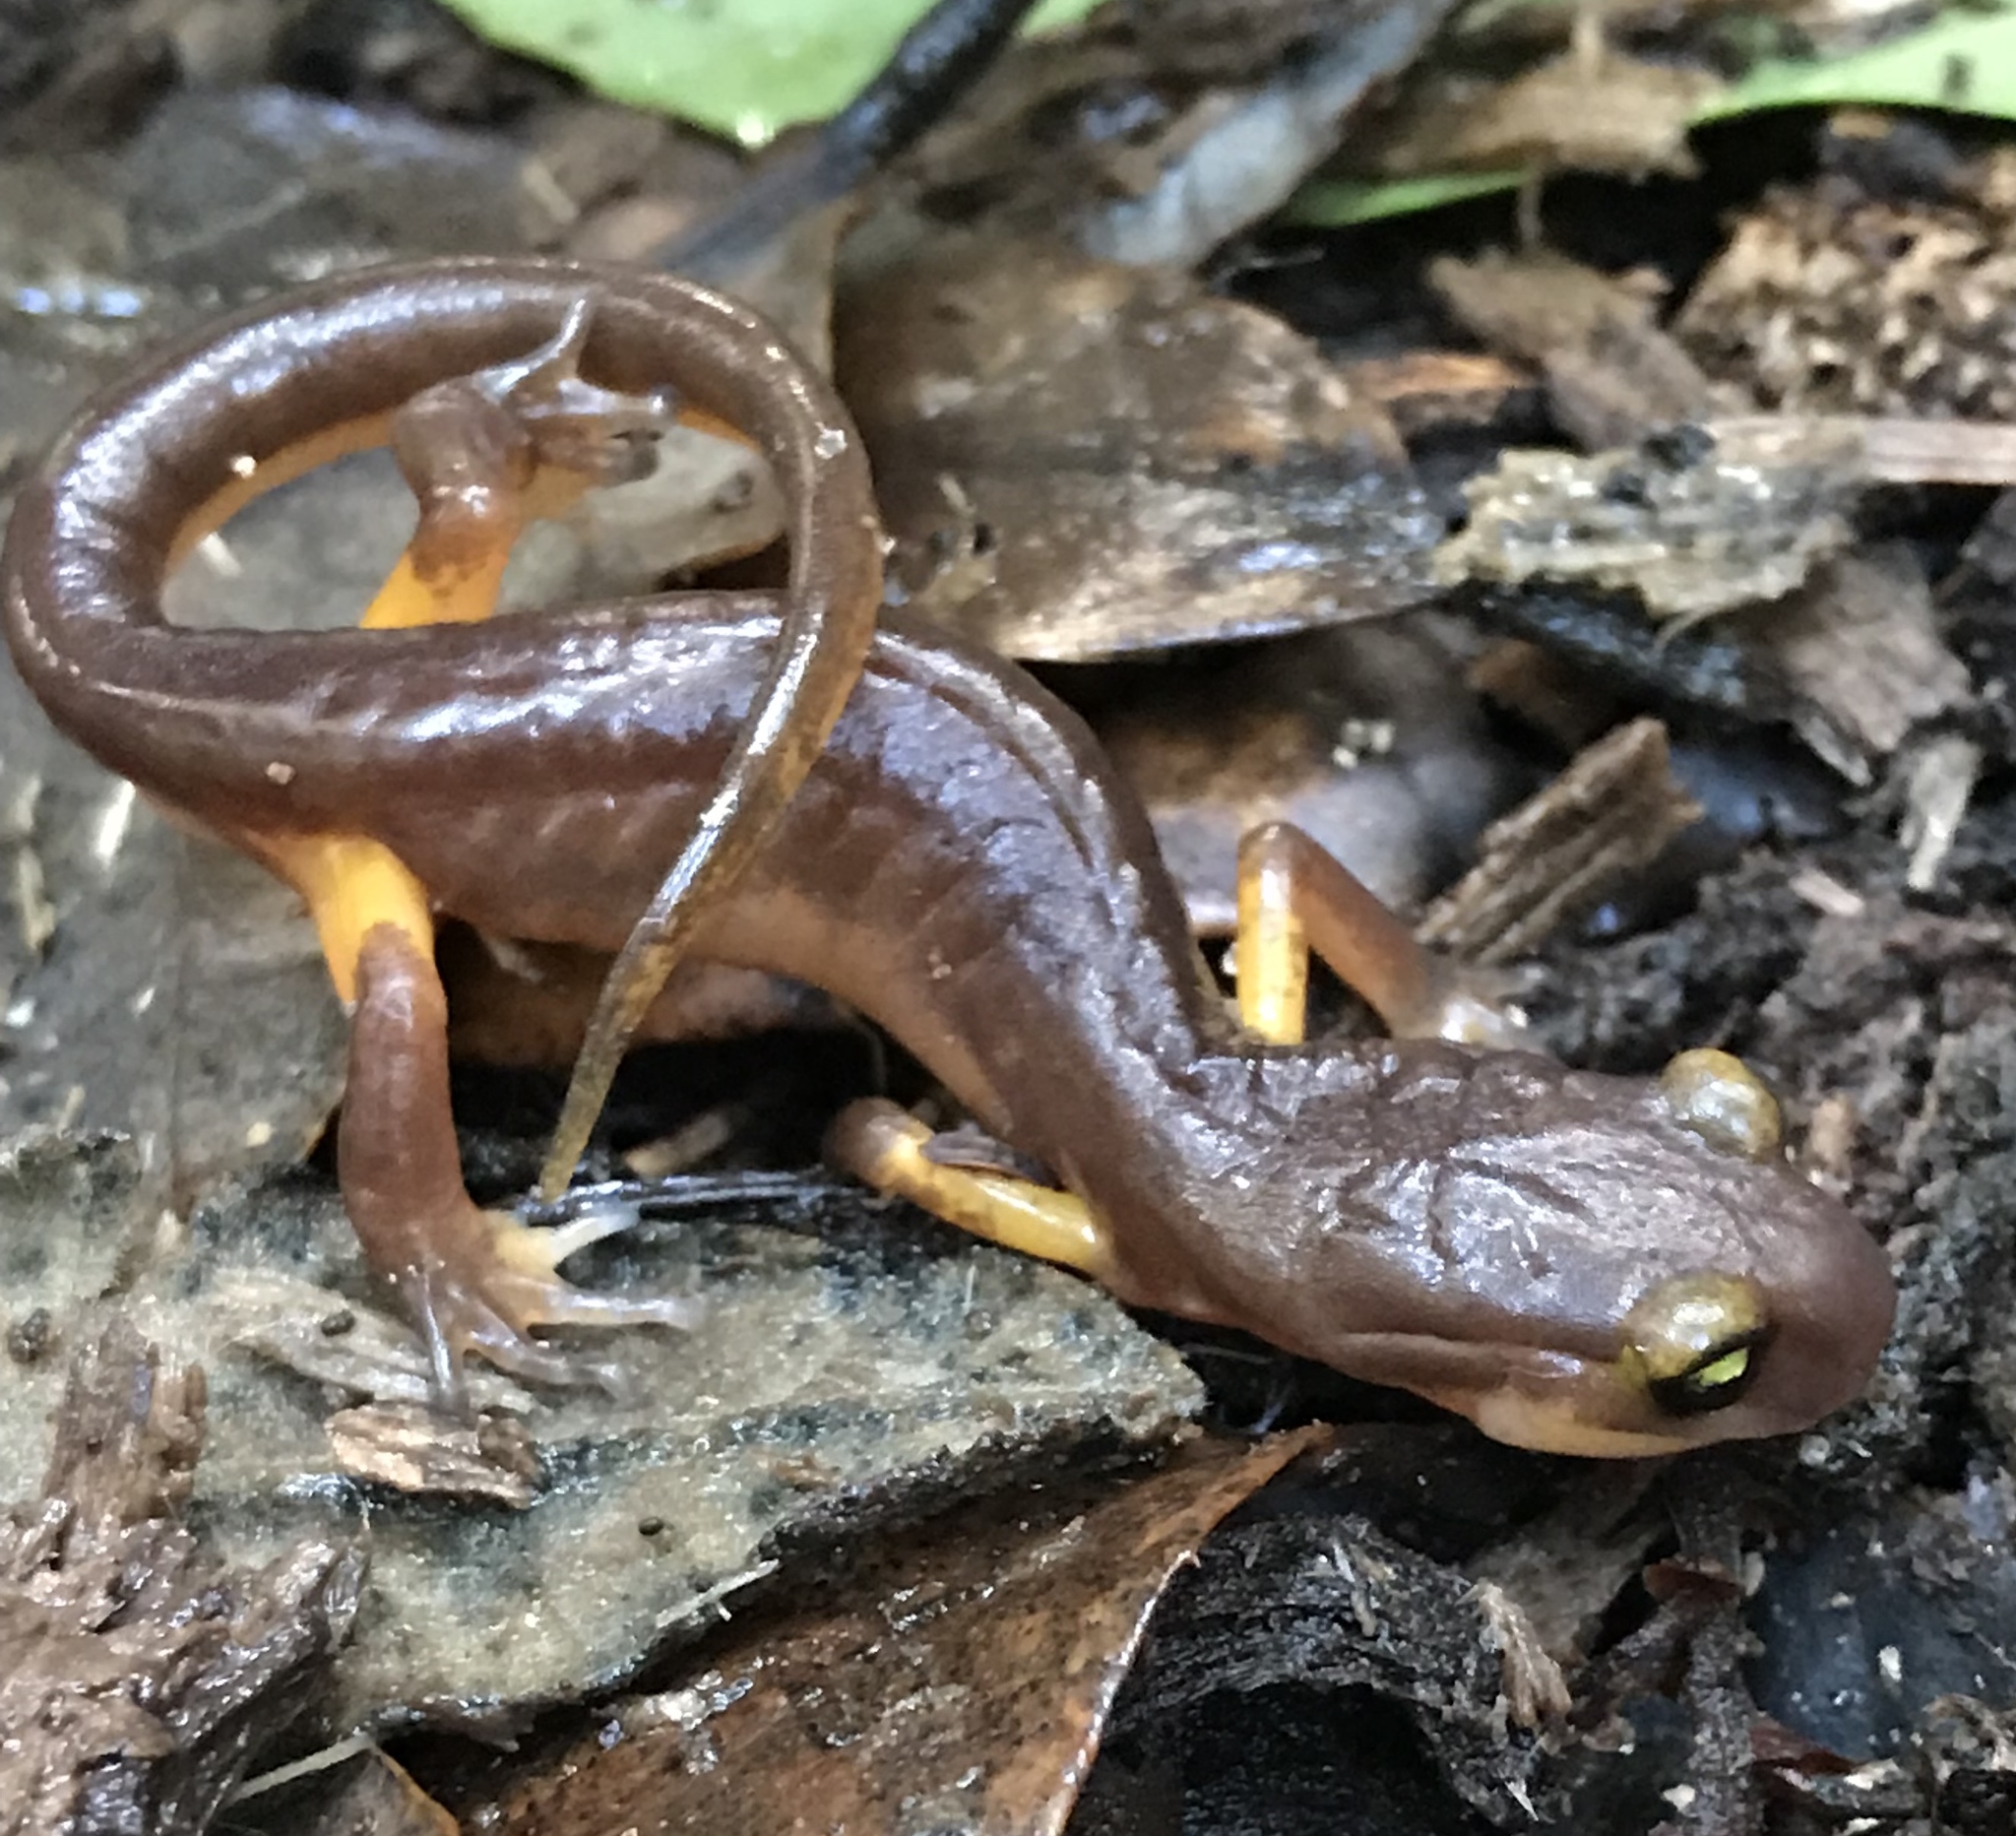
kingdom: Animalia
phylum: Chordata
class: Amphibia
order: Caudata
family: Plethodontidae
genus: Ensatina
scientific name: Ensatina eschscholtzii
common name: Ensatina
